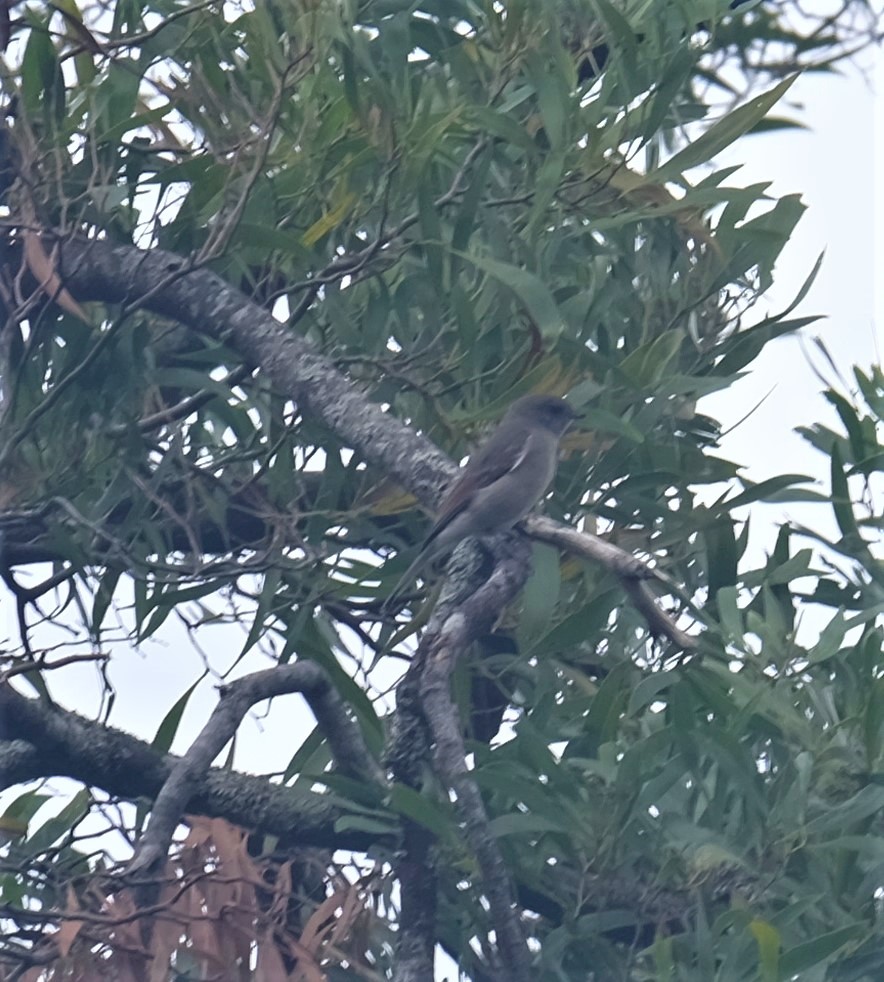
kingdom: Animalia
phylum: Chordata
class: Aves
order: Passeriformes
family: Pachycephalidae
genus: Pachycephala
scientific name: Pachycephala pectoralis
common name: Australian golden whistler
